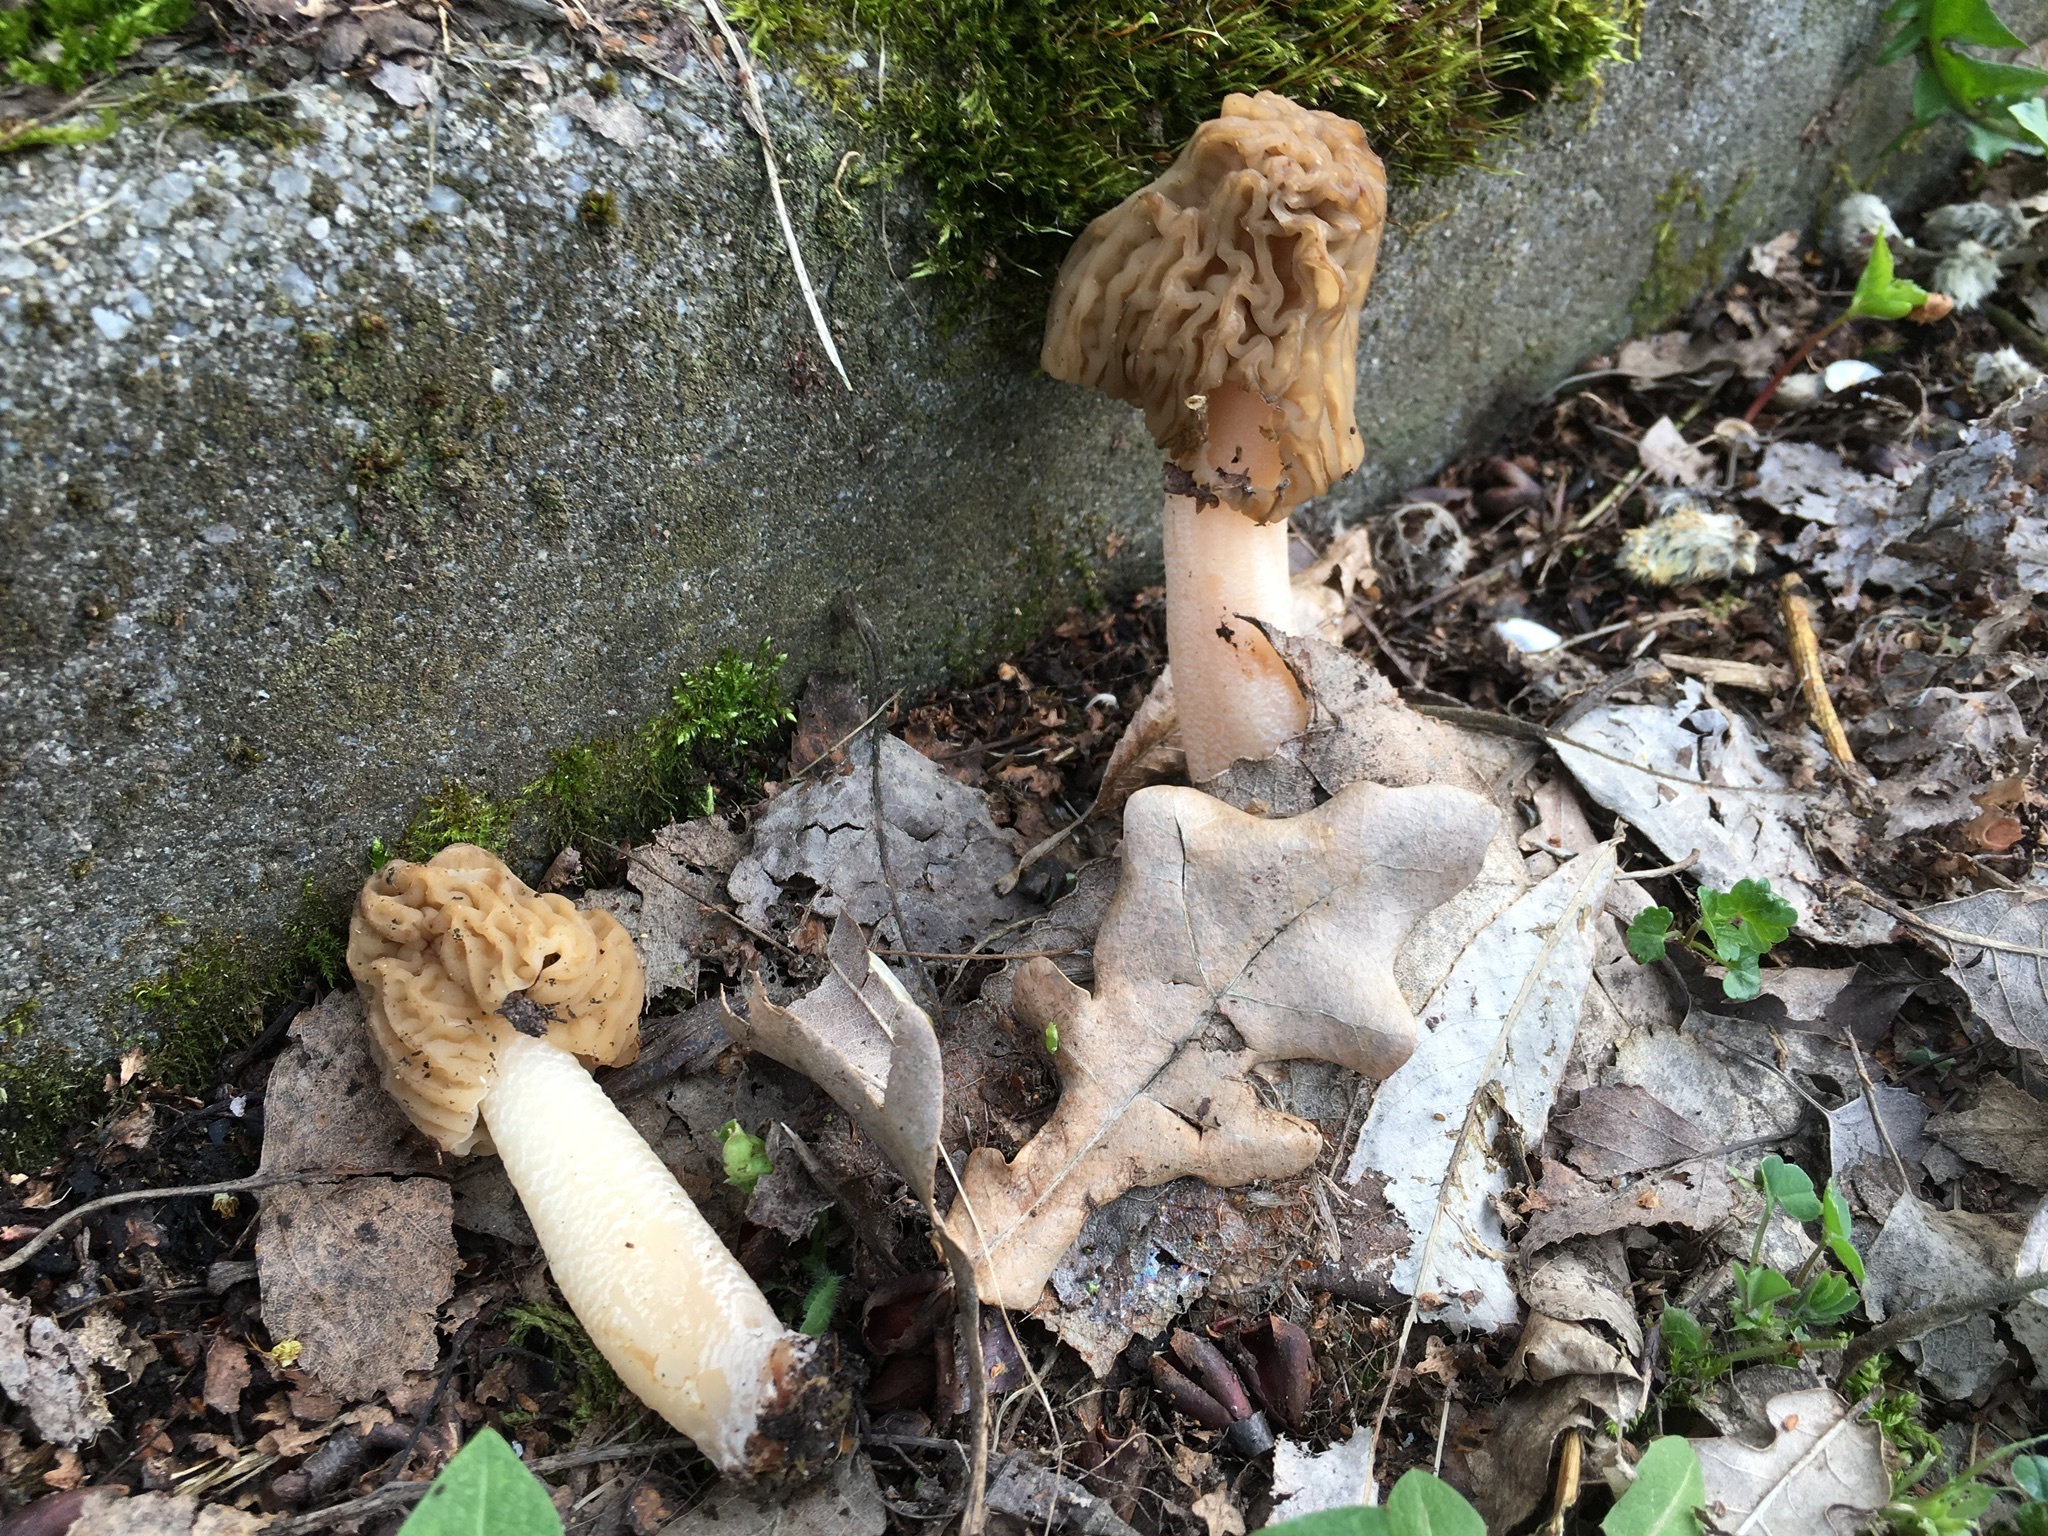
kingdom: Fungi
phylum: Ascomycota
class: Pezizomycetes
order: Pezizales
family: Morchellaceae
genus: Verpa
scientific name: Verpa bohemica
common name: Wrinkled thimble morel
